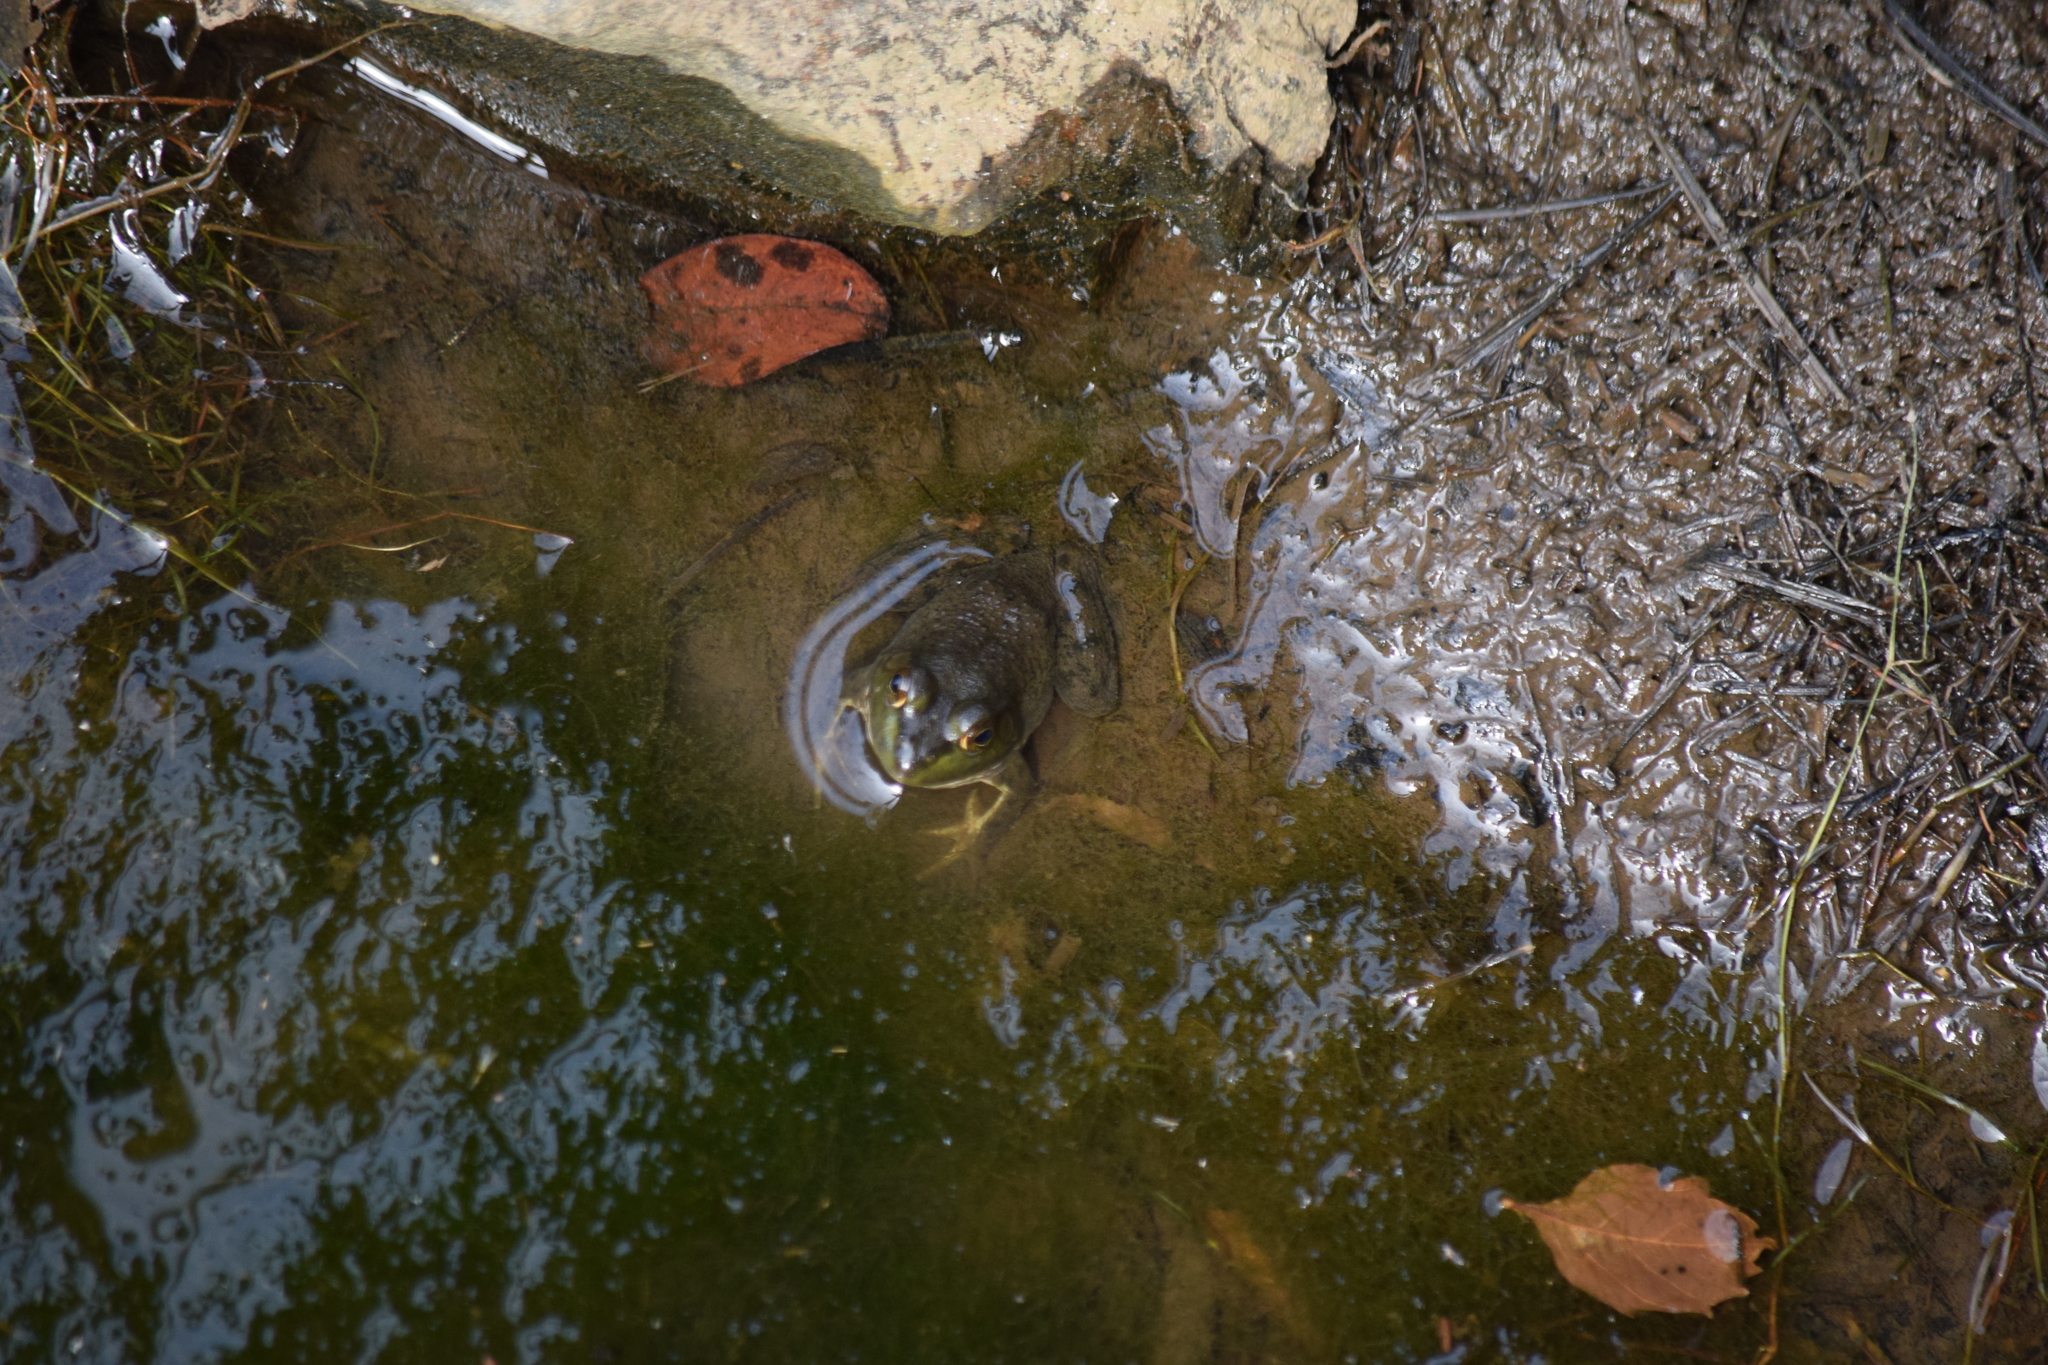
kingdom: Animalia
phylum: Chordata
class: Amphibia
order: Anura
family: Ranidae
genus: Lithobates
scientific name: Lithobates catesbeianus
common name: American bullfrog
